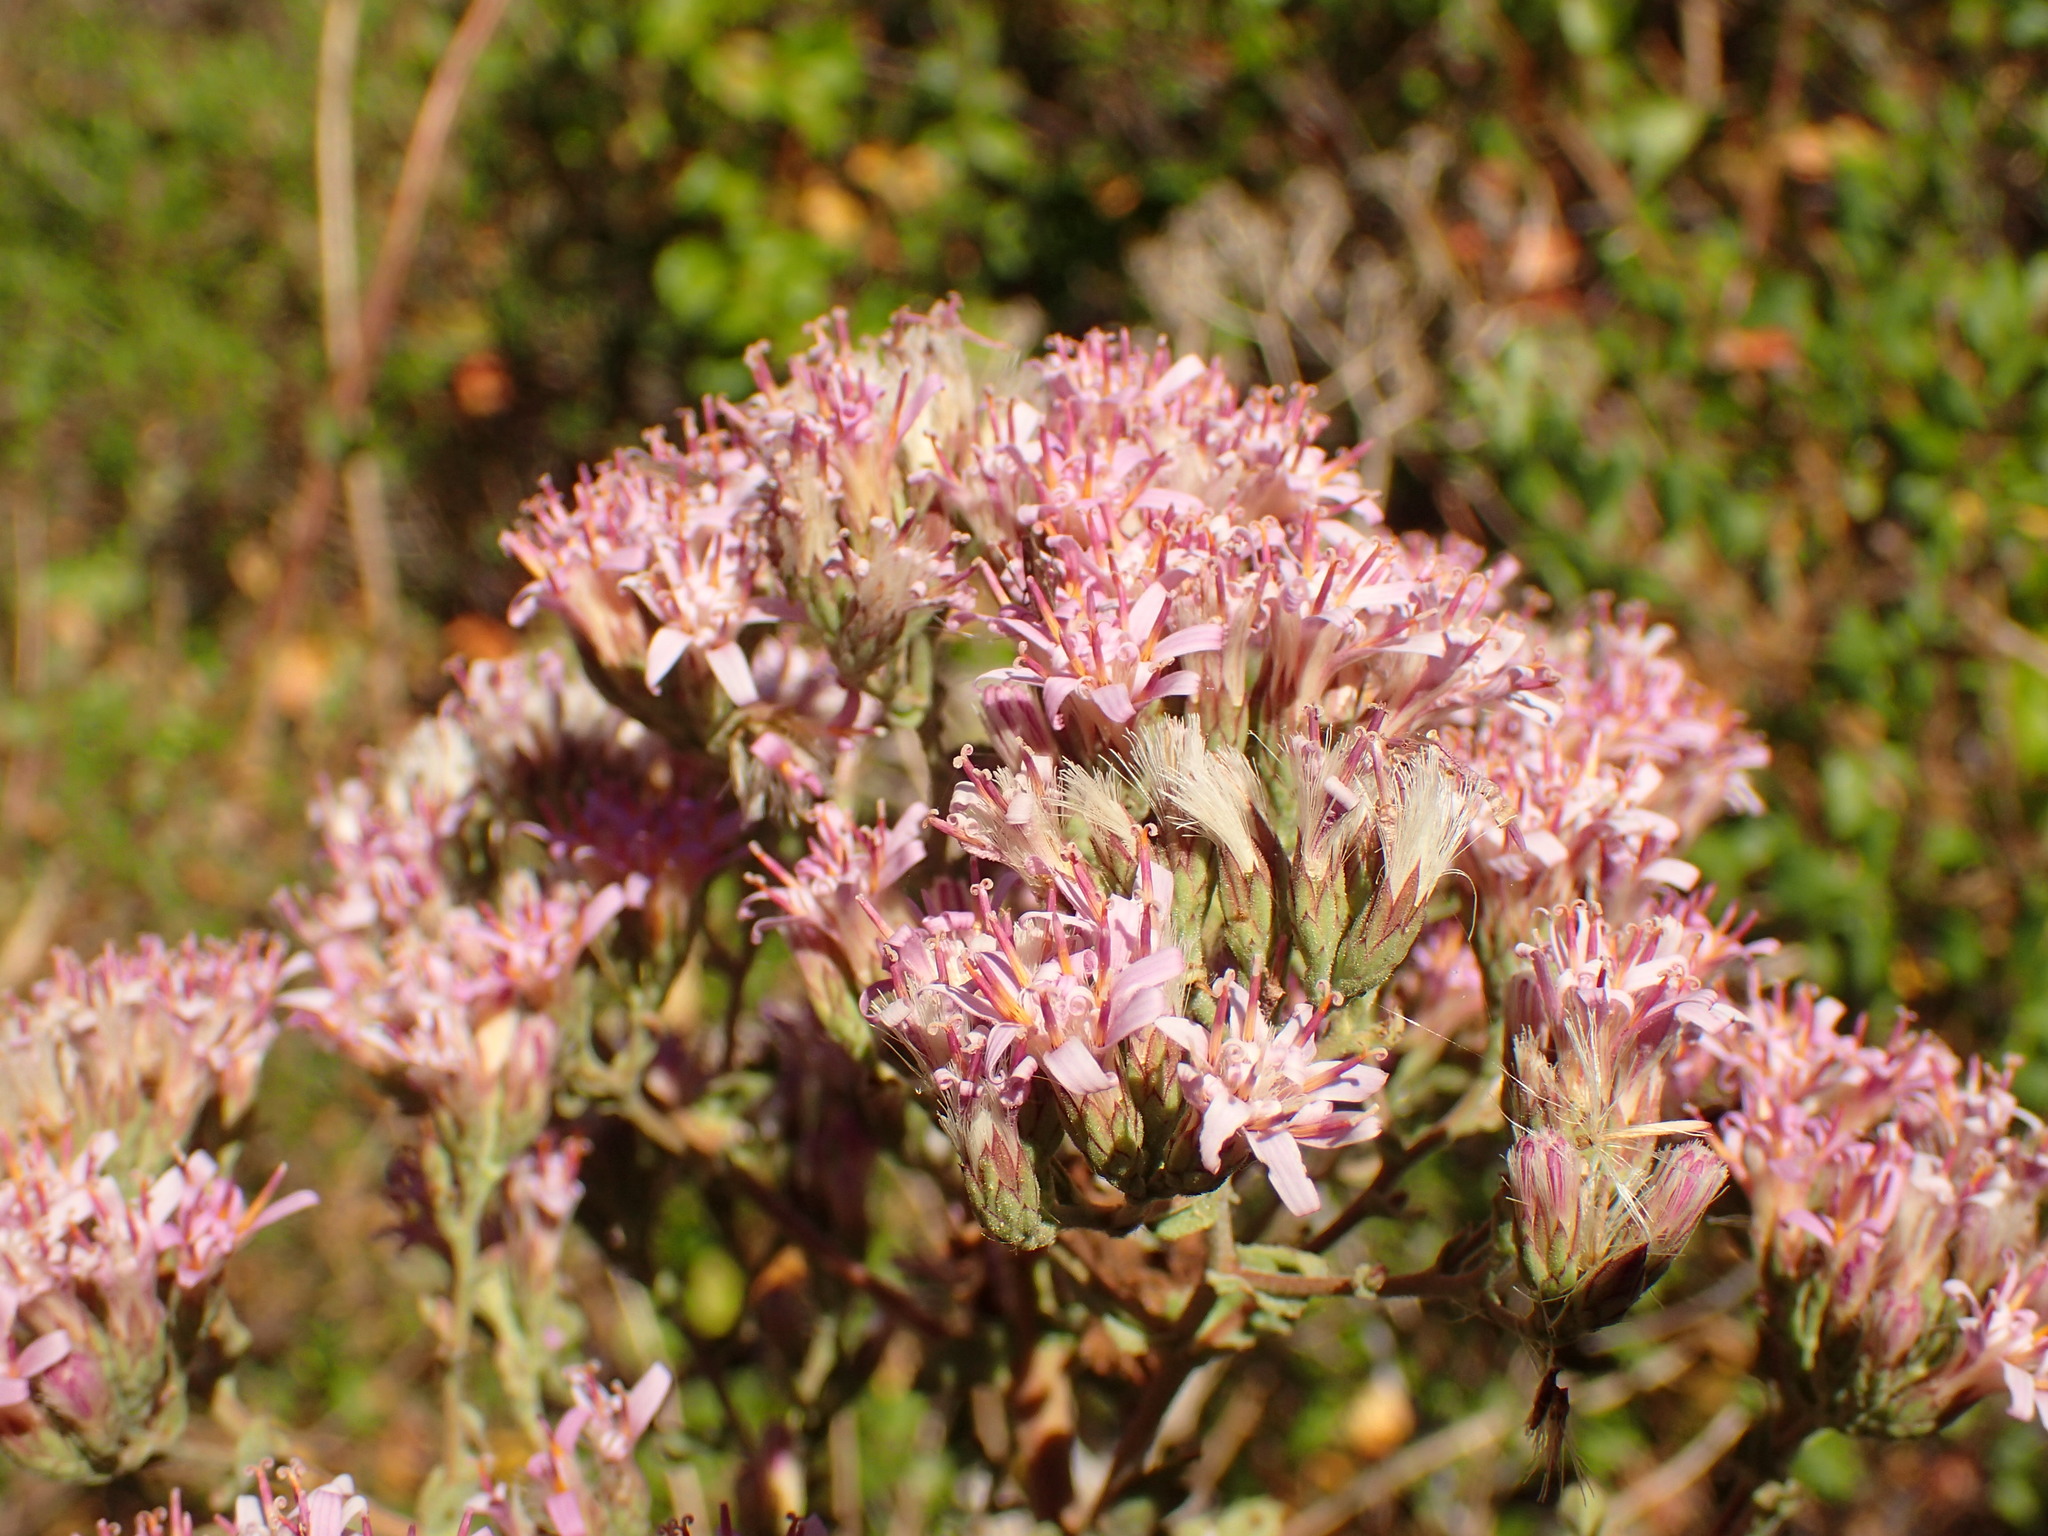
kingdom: Plantae
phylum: Tracheophyta
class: Magnoliopsida
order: Asterales
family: Asteraceae
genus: Acourtia
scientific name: Acourtia microcephala
